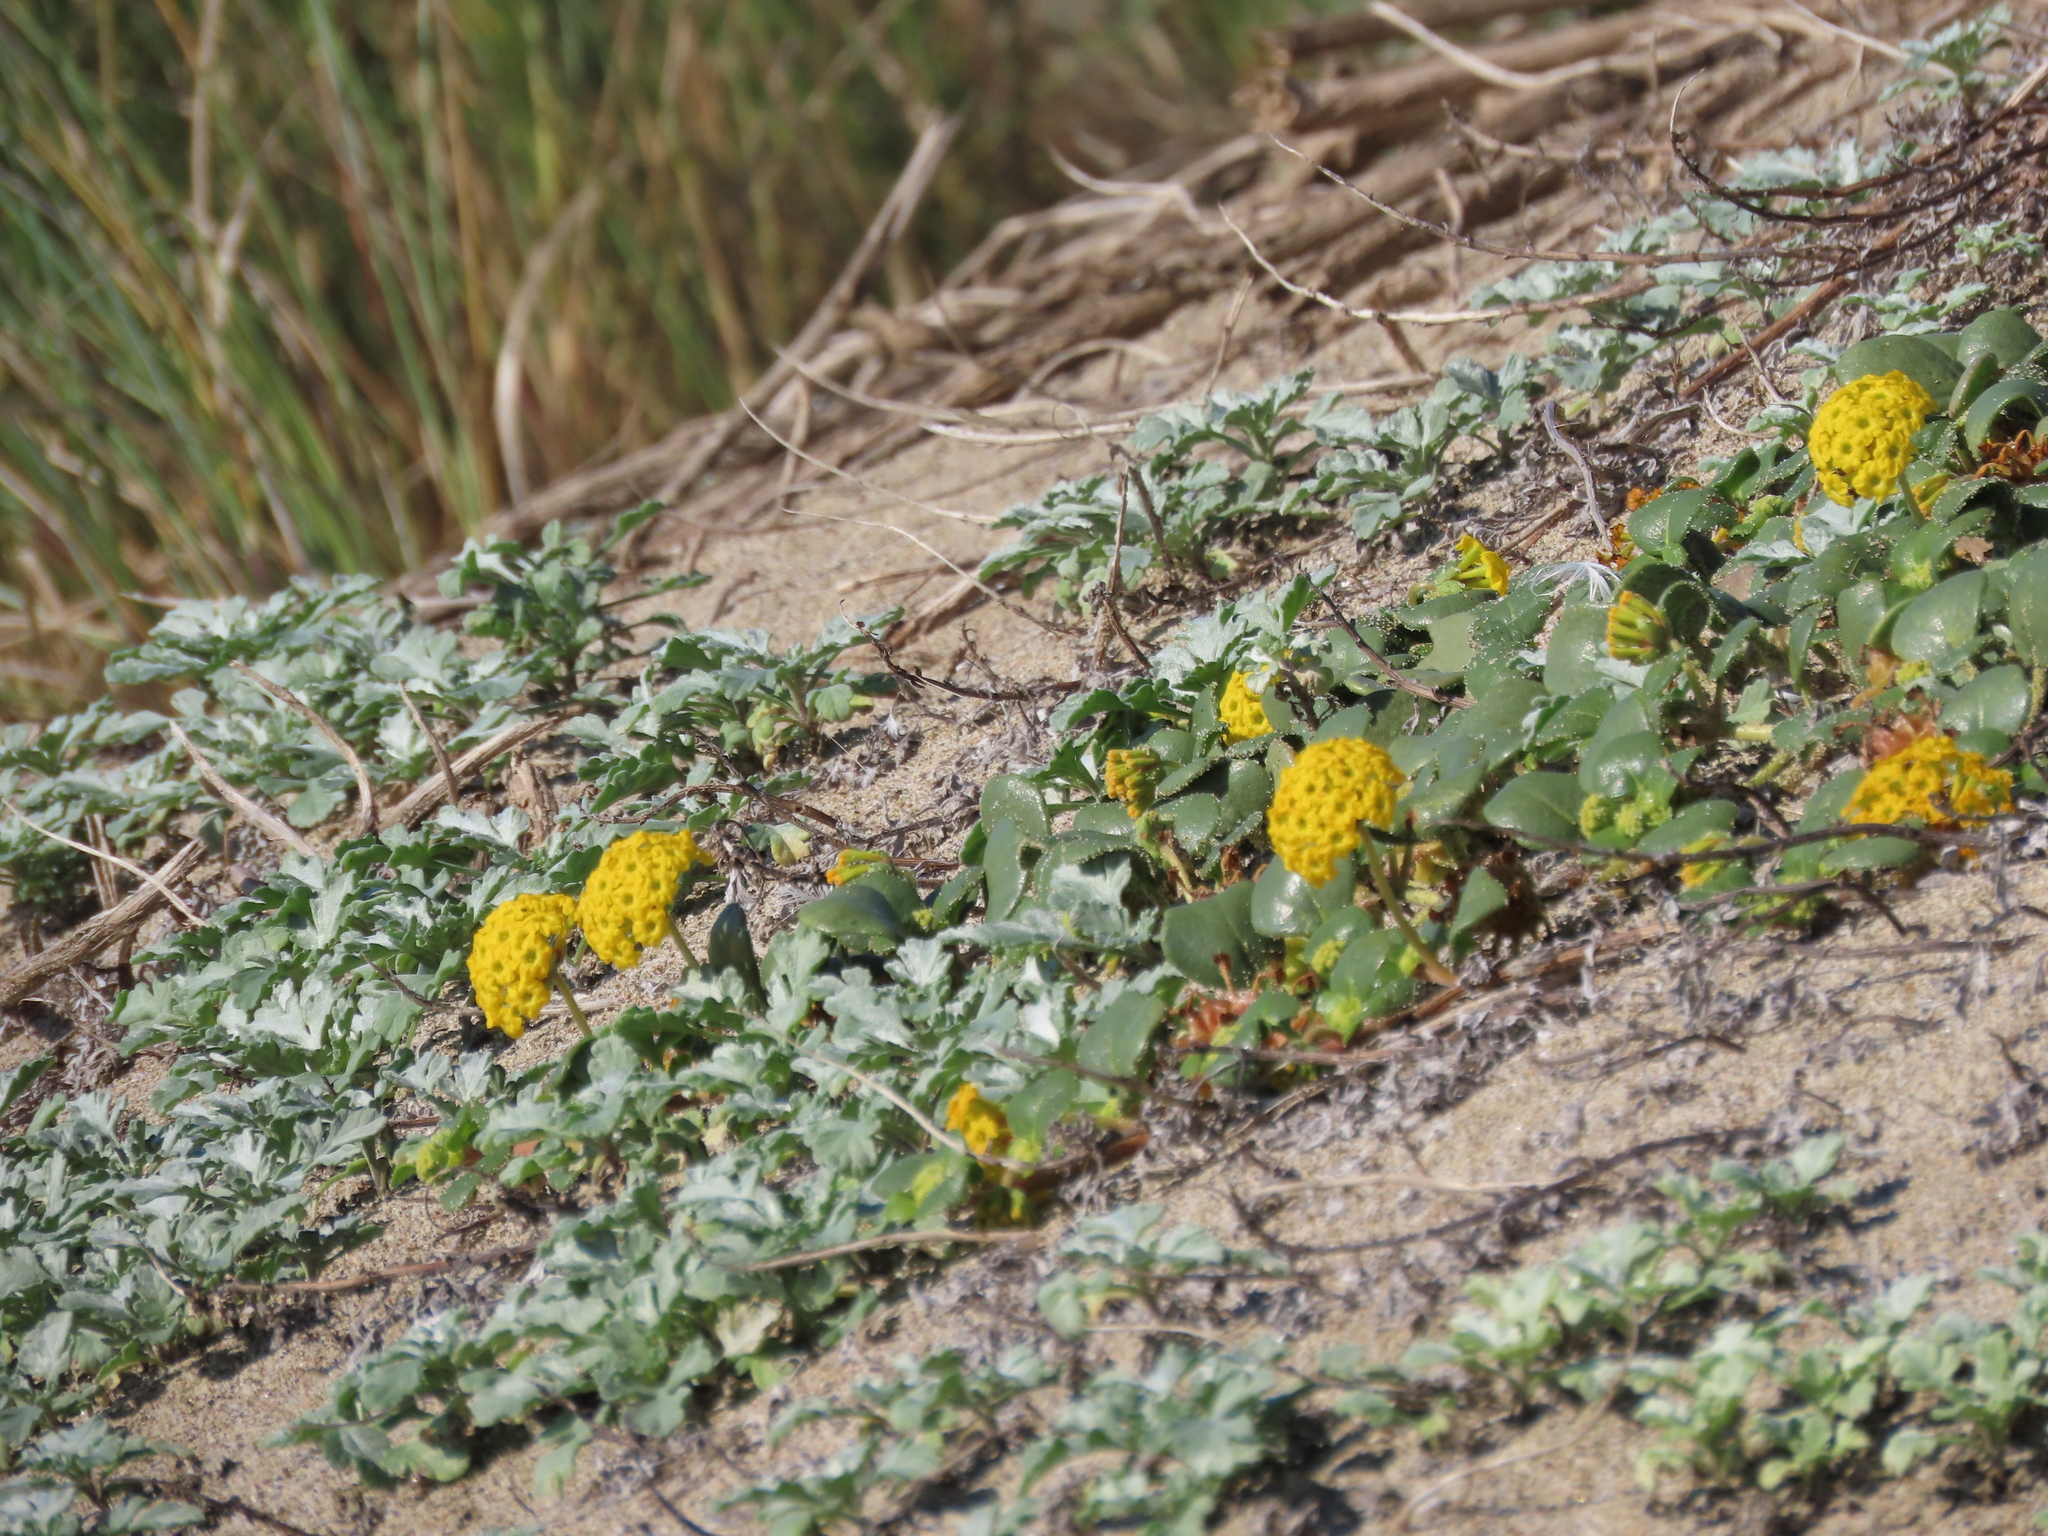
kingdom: Plantae
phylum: Tracheophyta
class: Magnoliopsida
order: Caryophyllales
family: Nyctaginaceae
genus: Abronia
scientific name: Abronia latifolia
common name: Yellow sand-verbena
